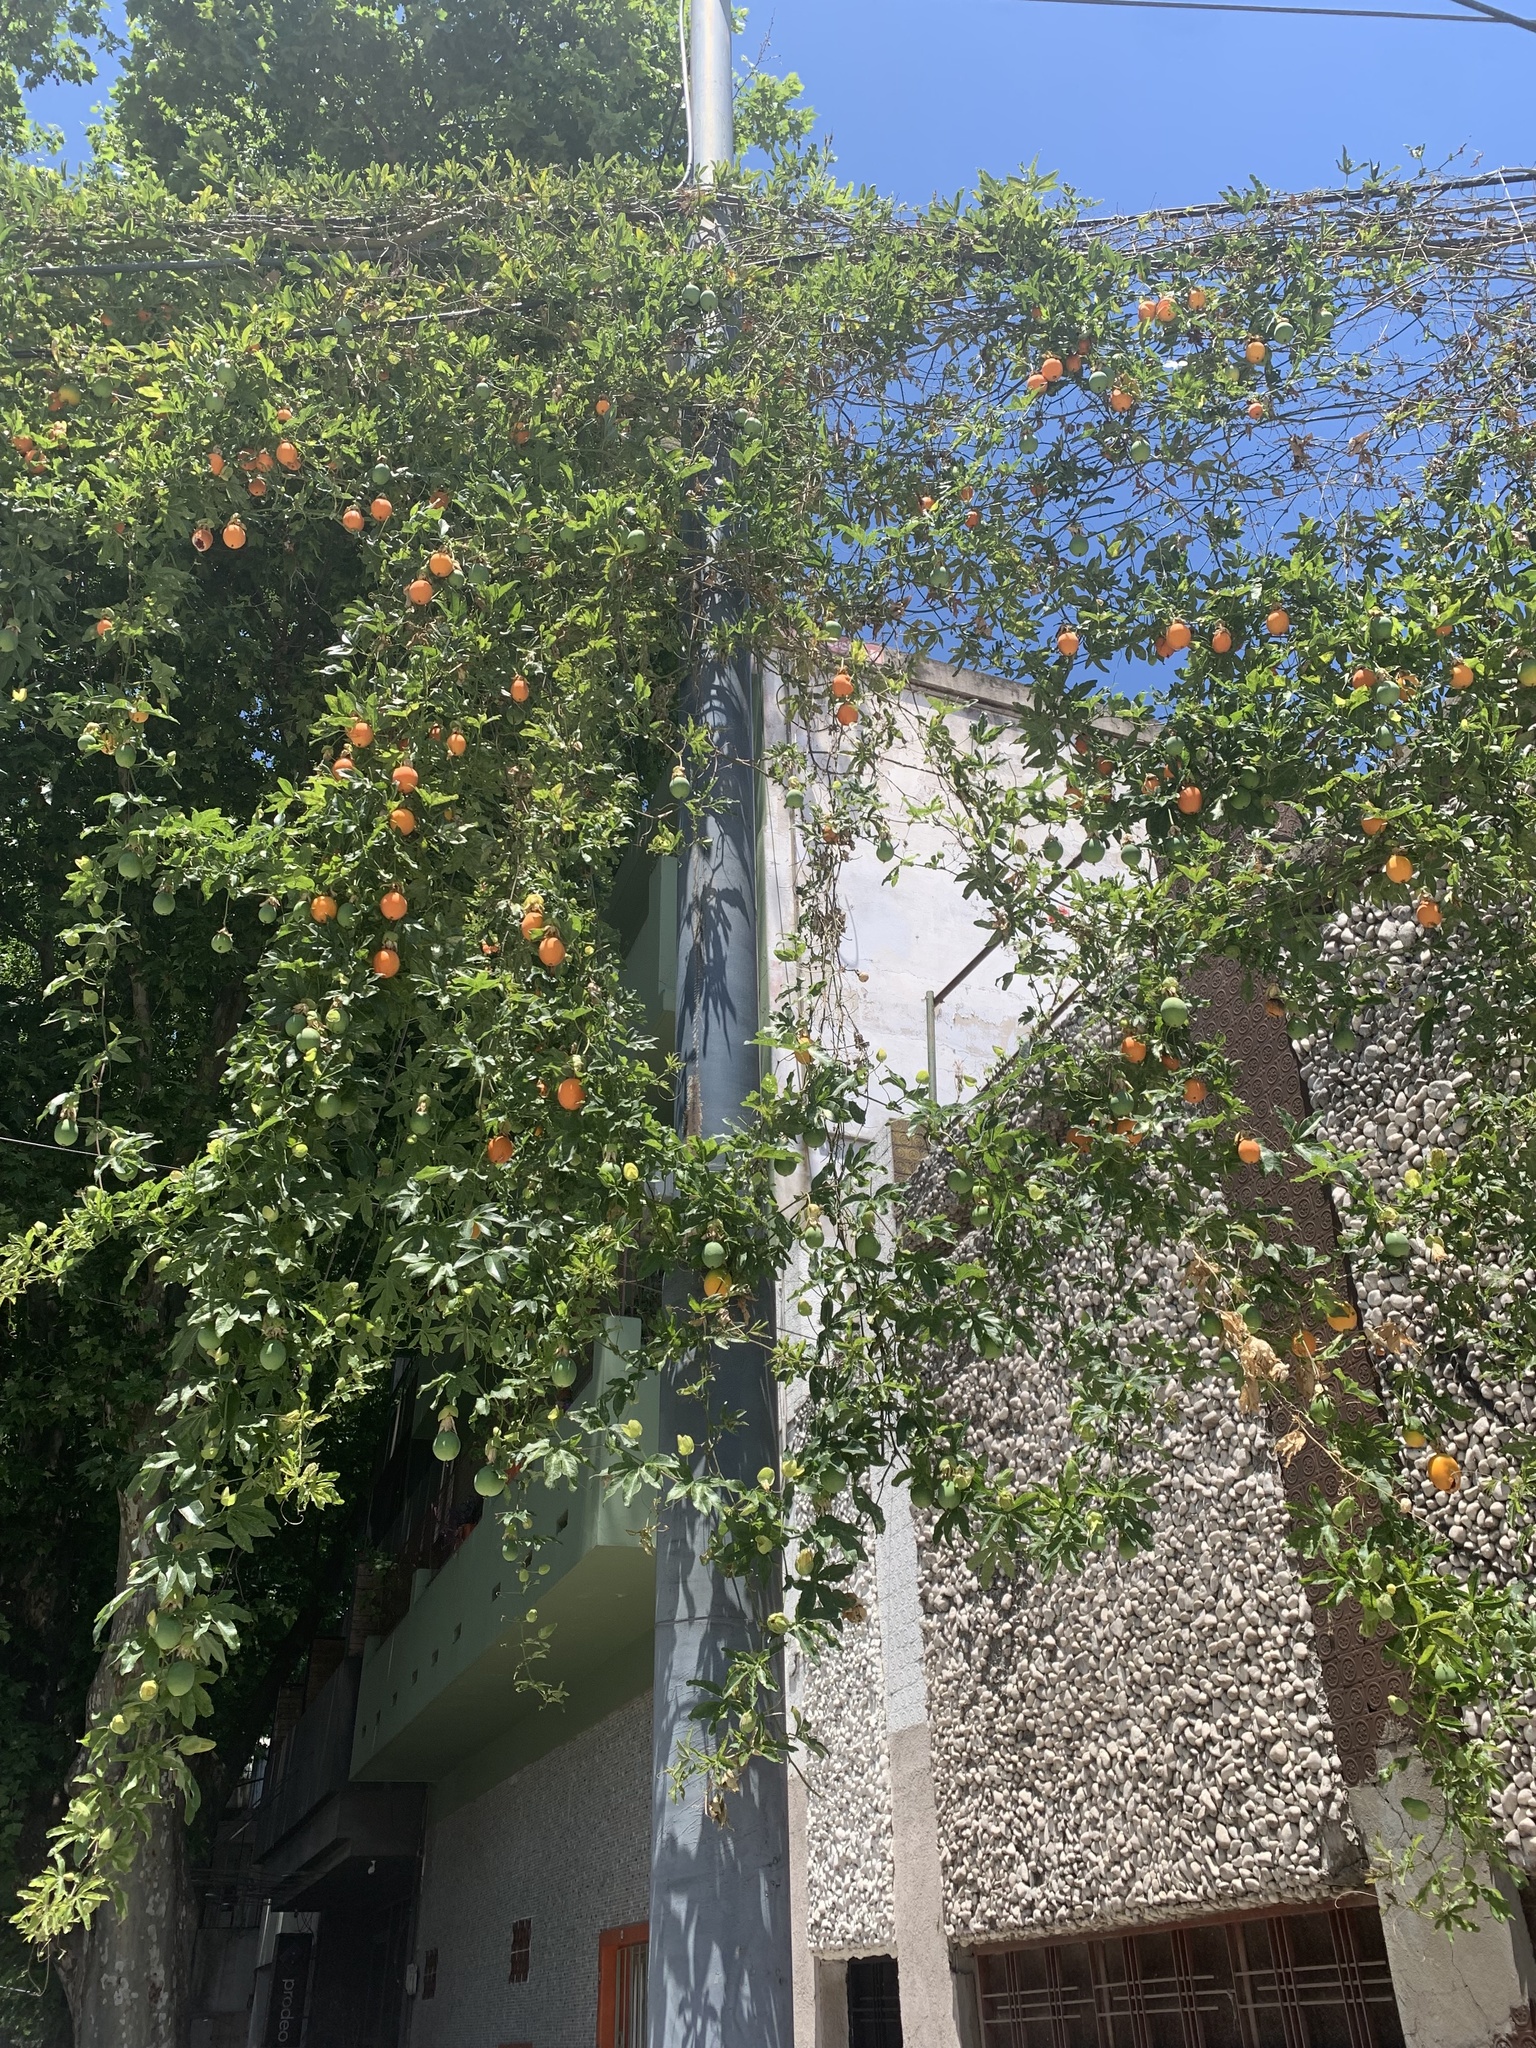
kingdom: Plantae
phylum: Tracheophyta
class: Magnoliopsida
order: Malpighiales
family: Passifloraceae
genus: Passiflora
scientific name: Passiflora caerulea
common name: Blue passionflower
